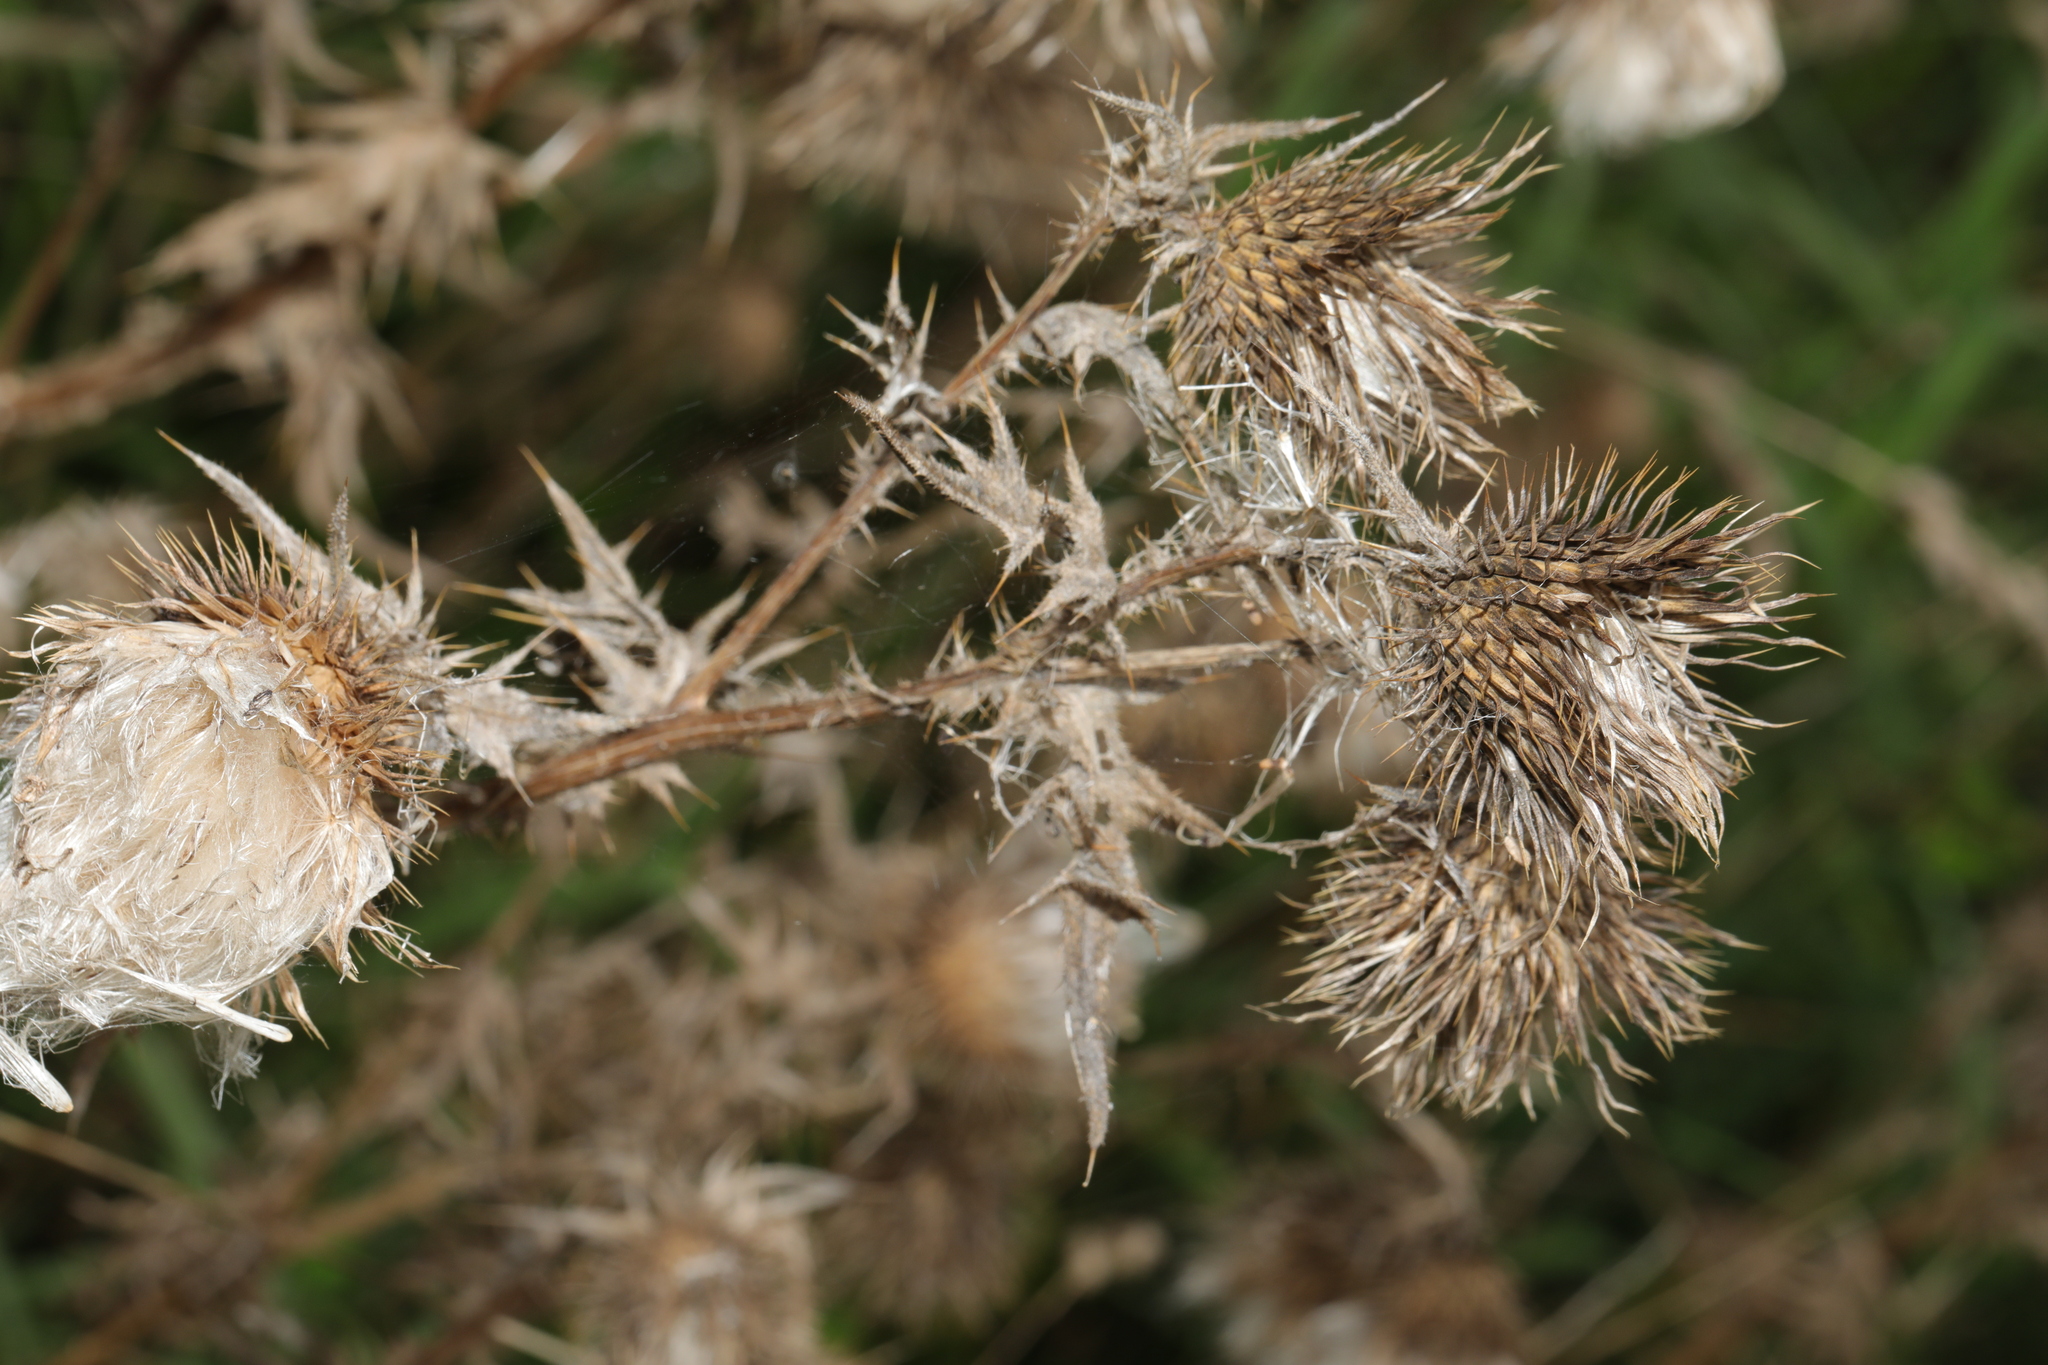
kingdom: Plantae
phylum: Tracheophyta
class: Magnoliopsida
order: Asterales
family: Asteraceae
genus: Cirsium
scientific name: Cirsium vulgare
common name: Bull thistle
